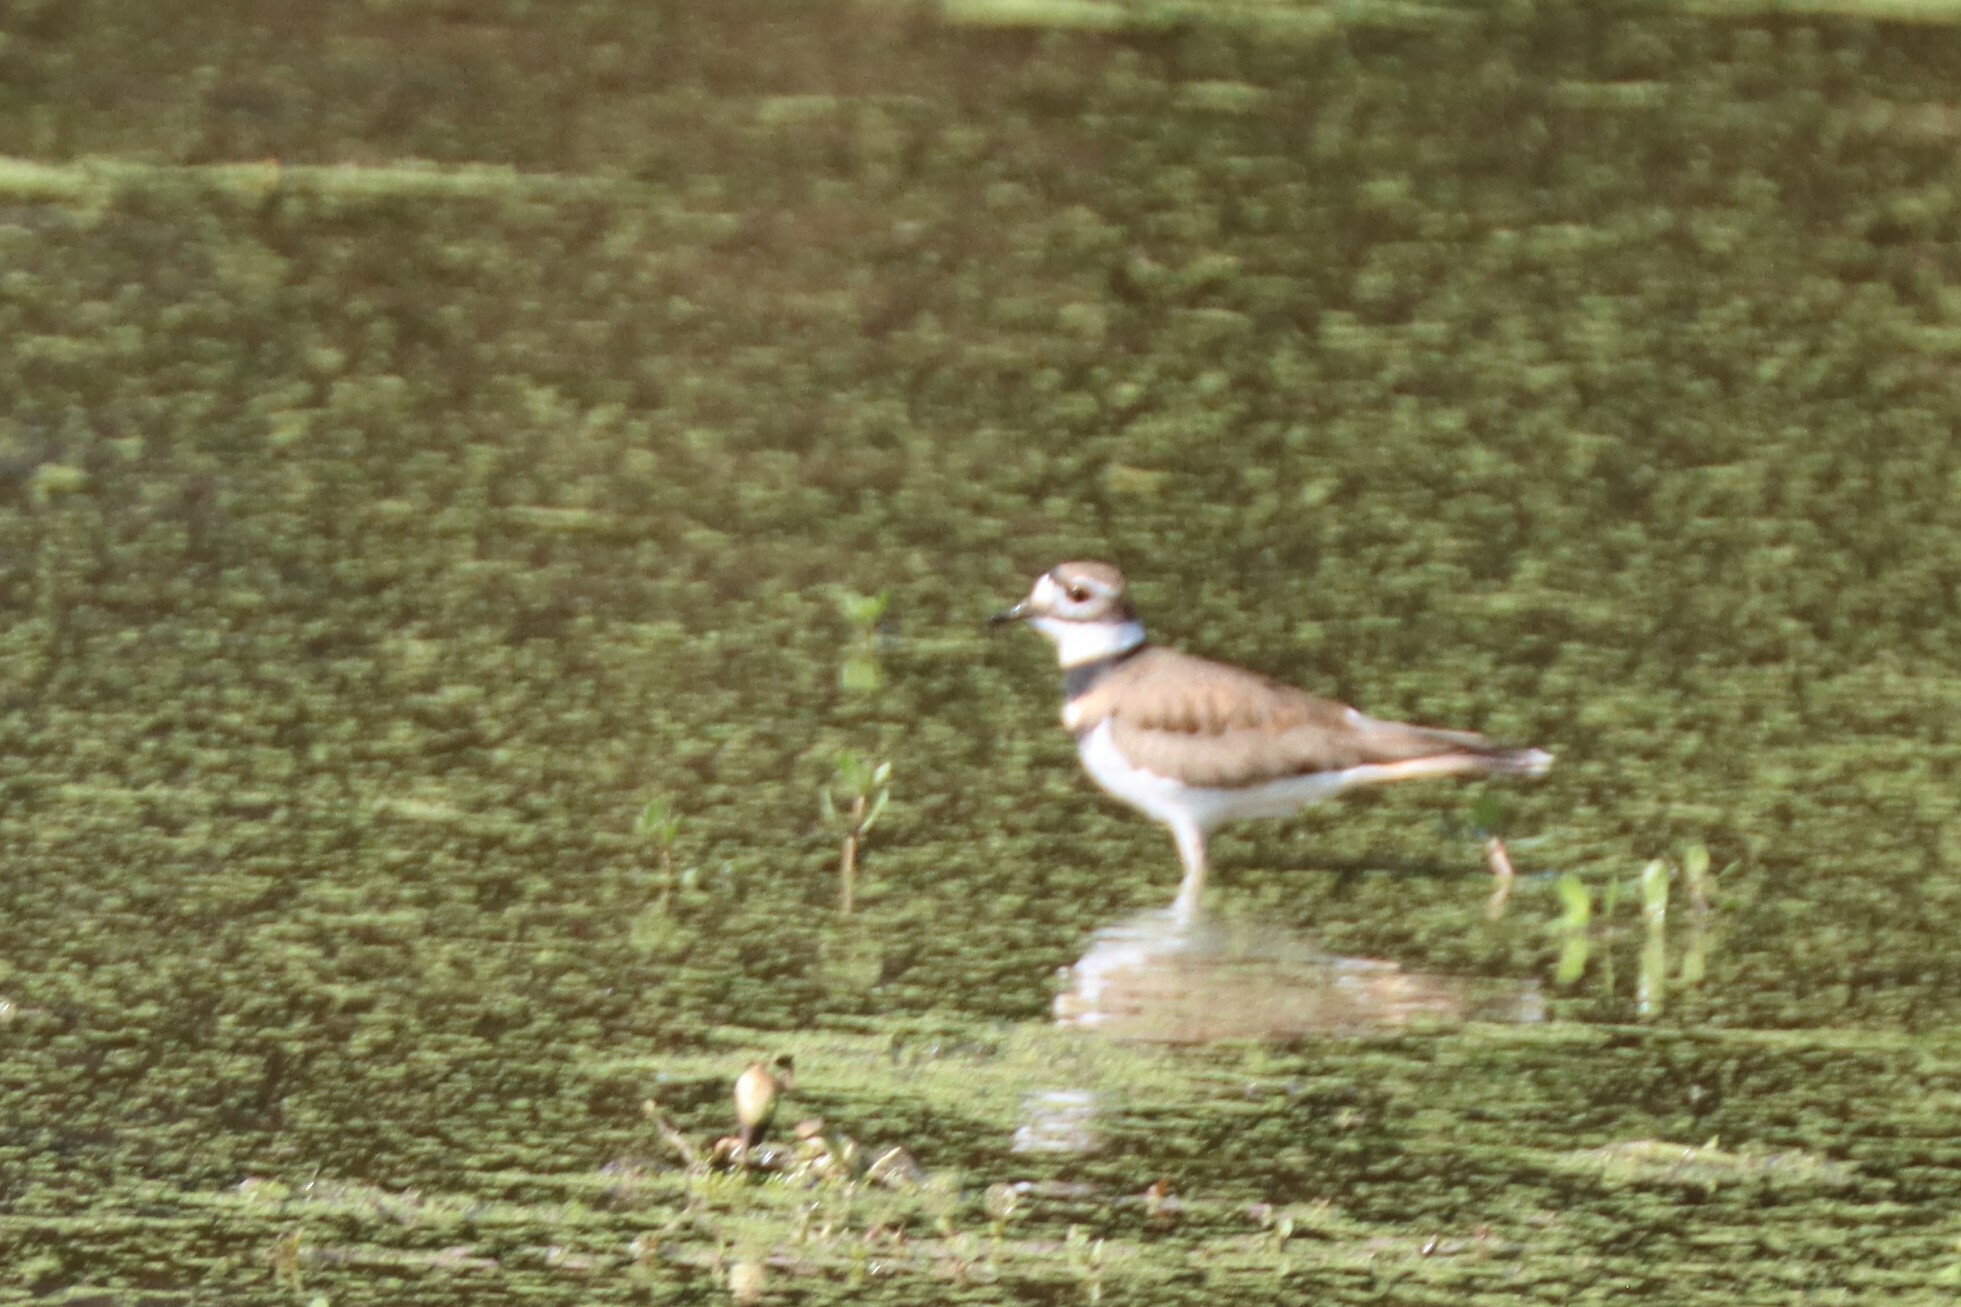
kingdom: Animalia
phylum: Chordata
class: Aves
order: Charadriiformes
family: Charadriidae
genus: Charadrius
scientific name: Charadrius vociferus
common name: Killdeer
